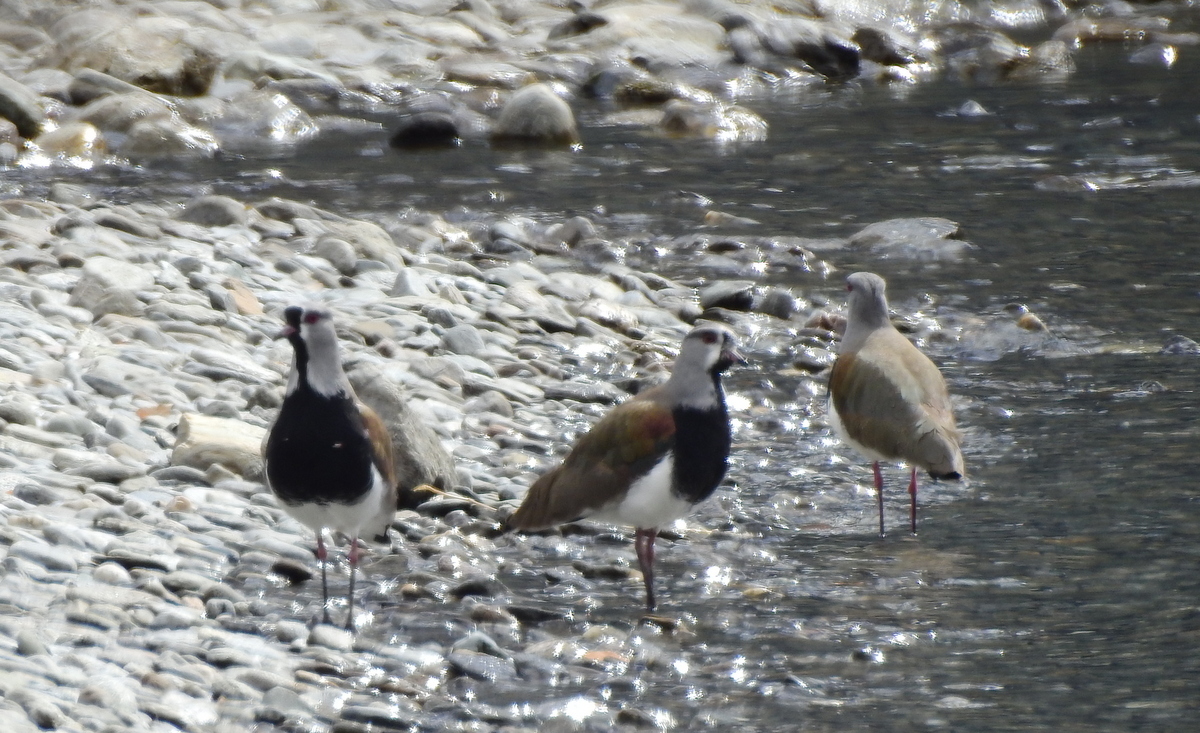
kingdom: Animalia
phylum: Chordata
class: Aves
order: Charadriiformes
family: Charadriidae
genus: Vanellus
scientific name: Vanellus chilensis
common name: Southern lapwing
